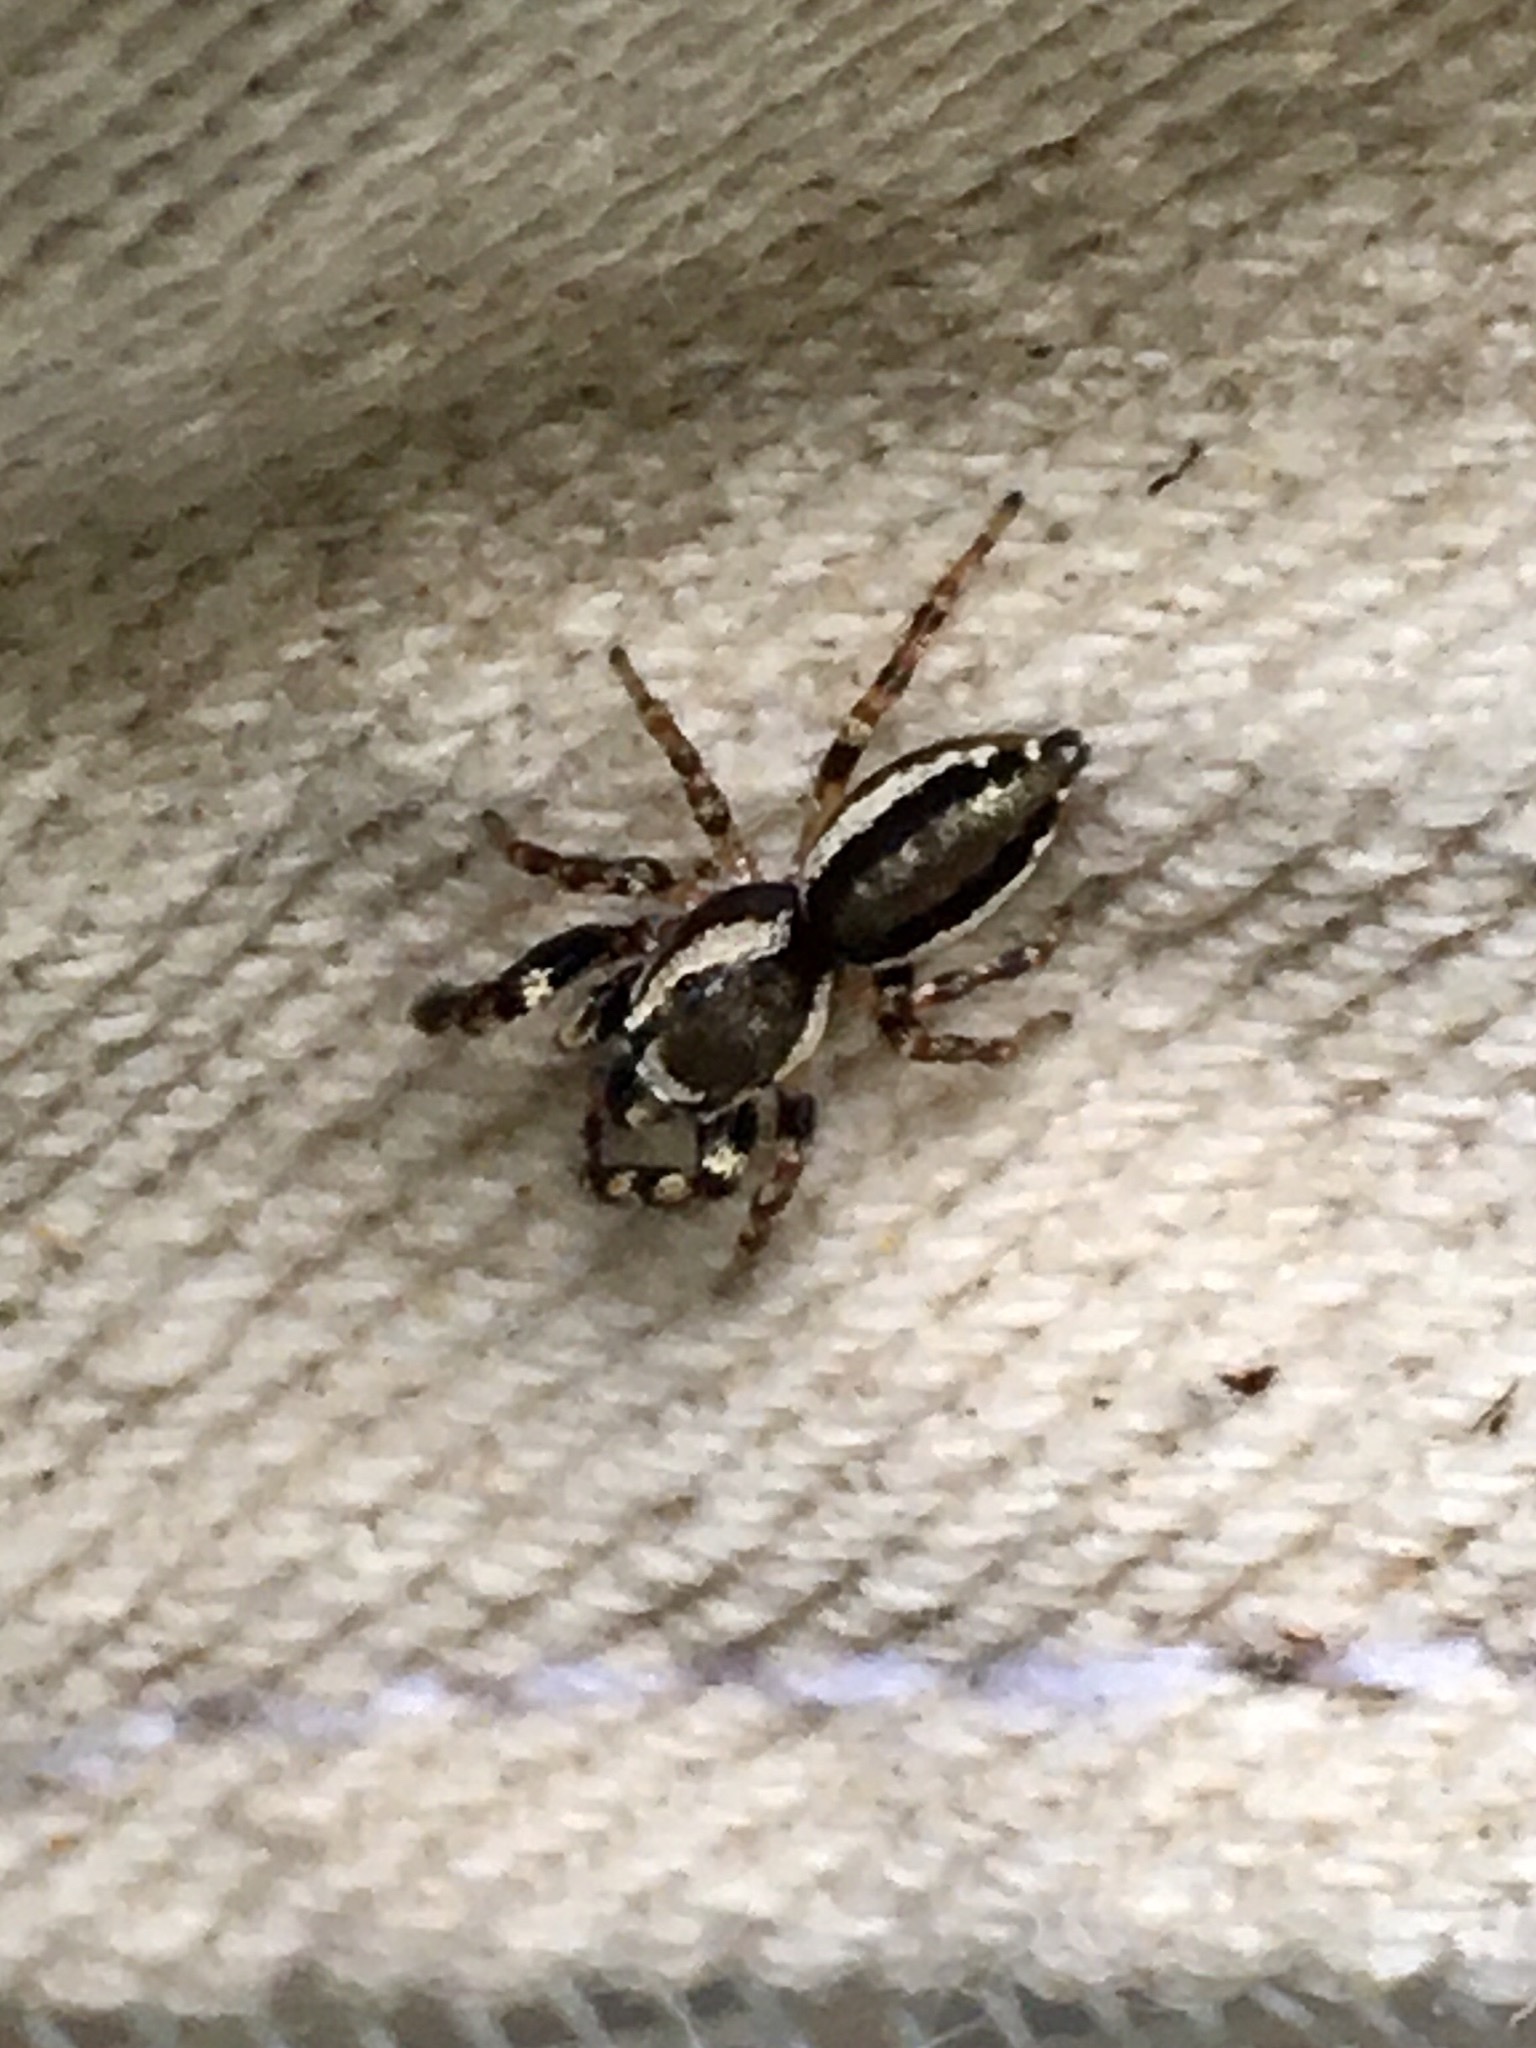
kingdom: Animalia
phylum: Arthropoda
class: Arachnida
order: Araneae
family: Salticidae
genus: Pelegrina
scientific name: Pelegrina proterva
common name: Common white-cheeked jumping spider
